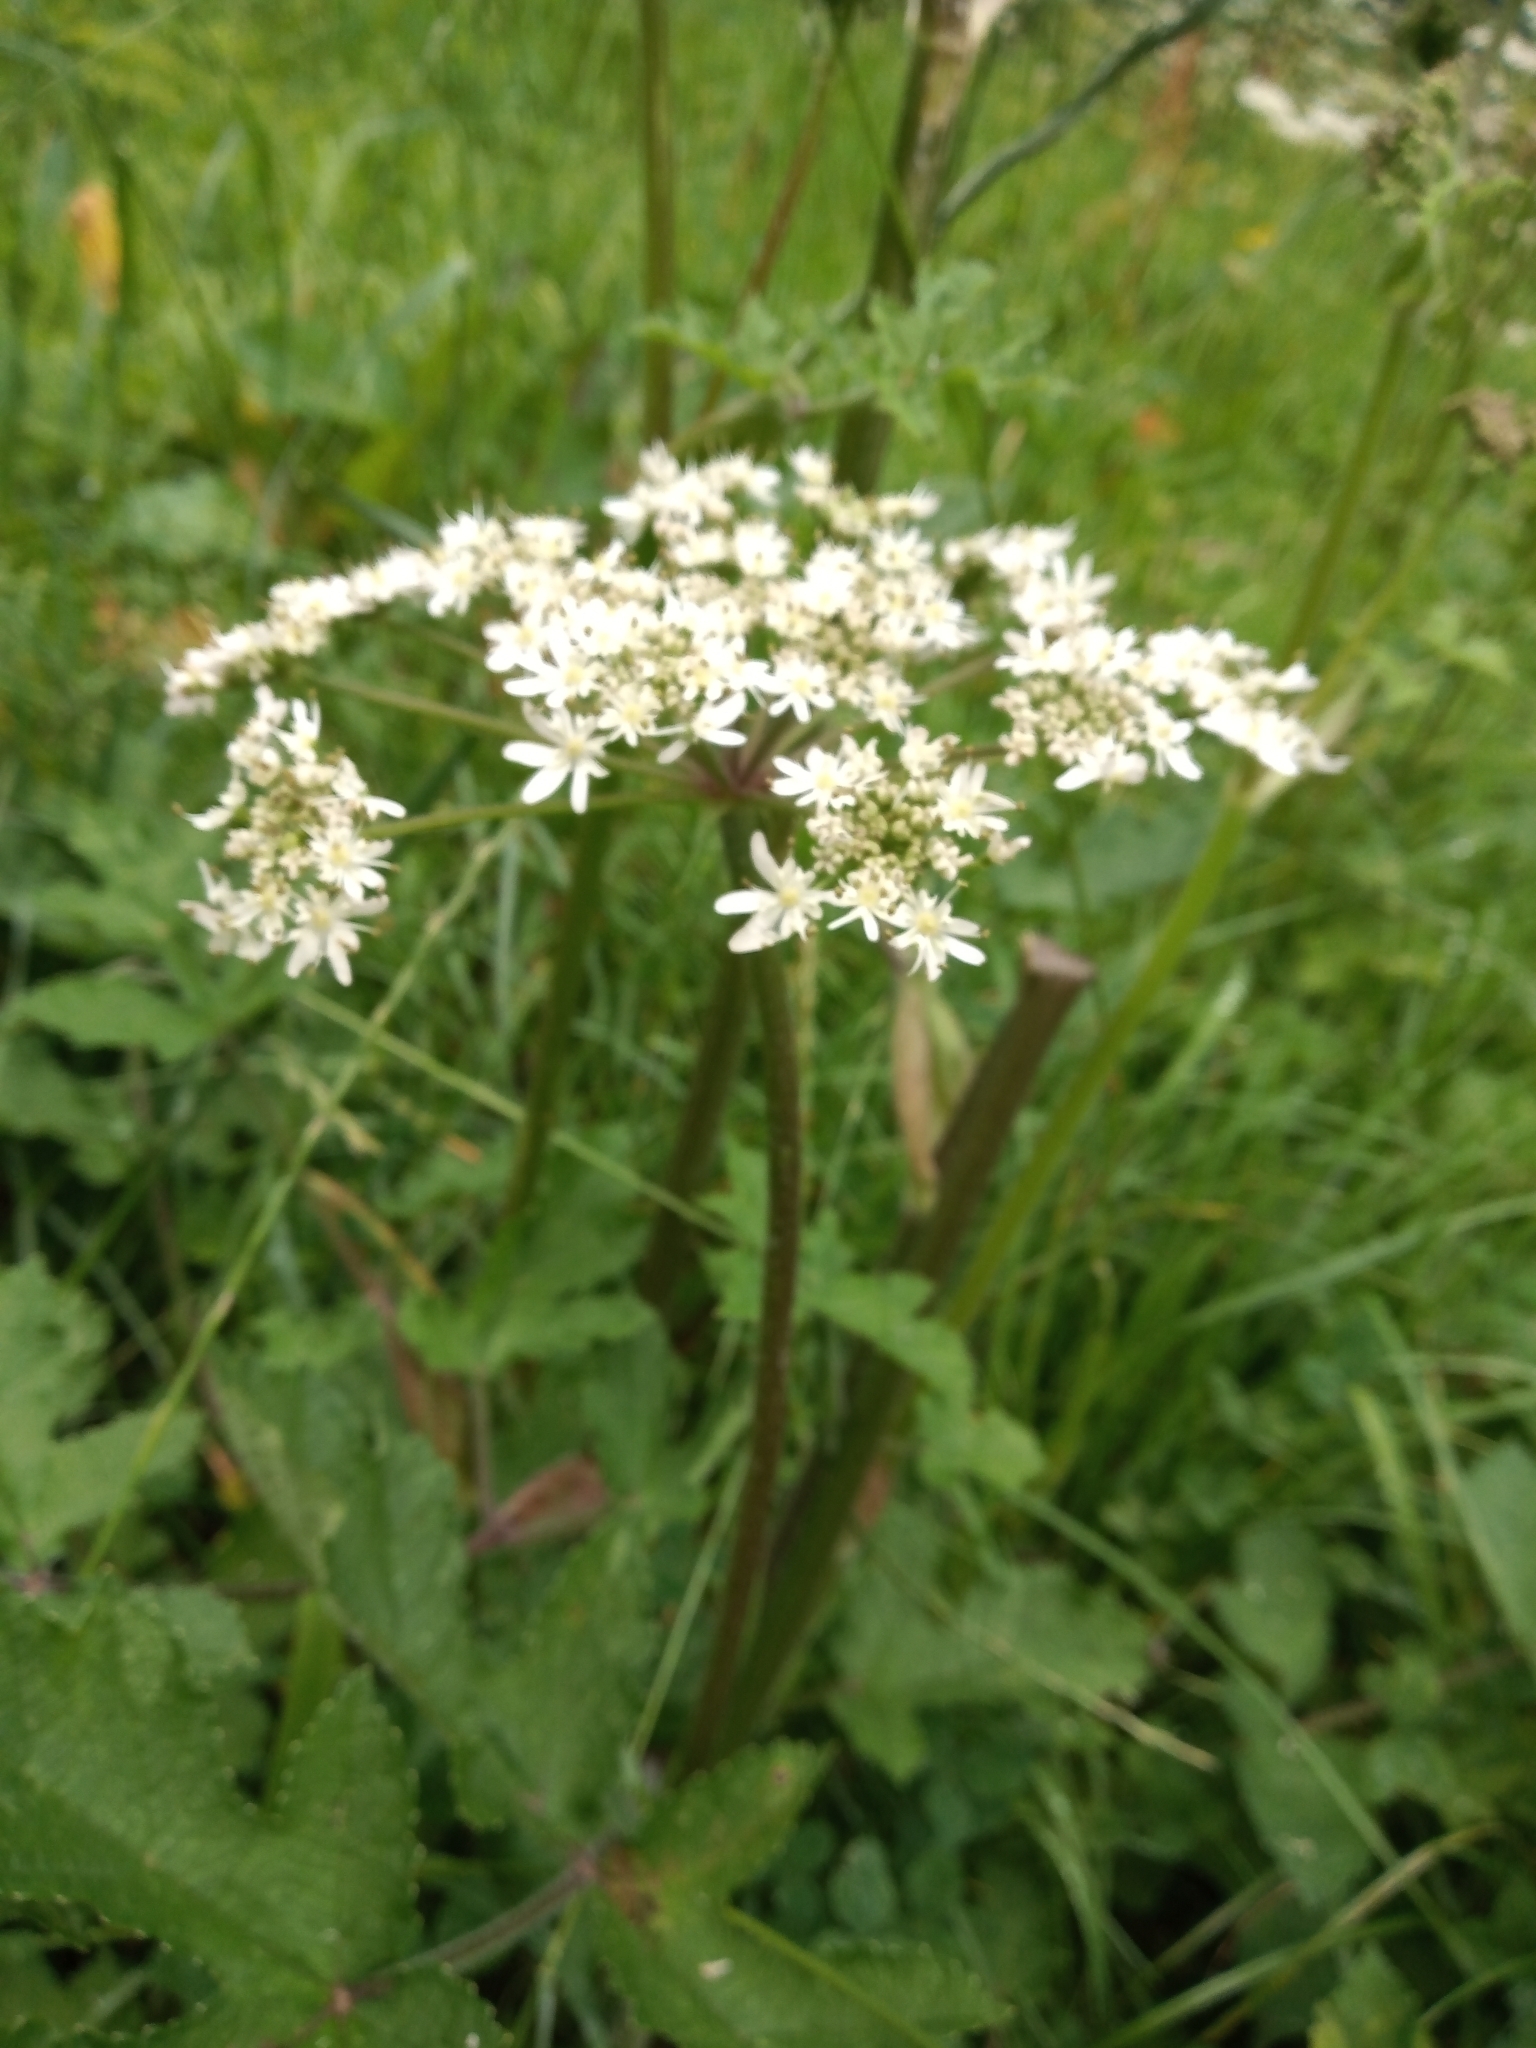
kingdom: Plantae
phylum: Tracheophyta
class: Magnoliopsida
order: Apiales
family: Apiaceae
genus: Heracleum
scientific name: Heracleum sphondylium
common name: Hogweed
